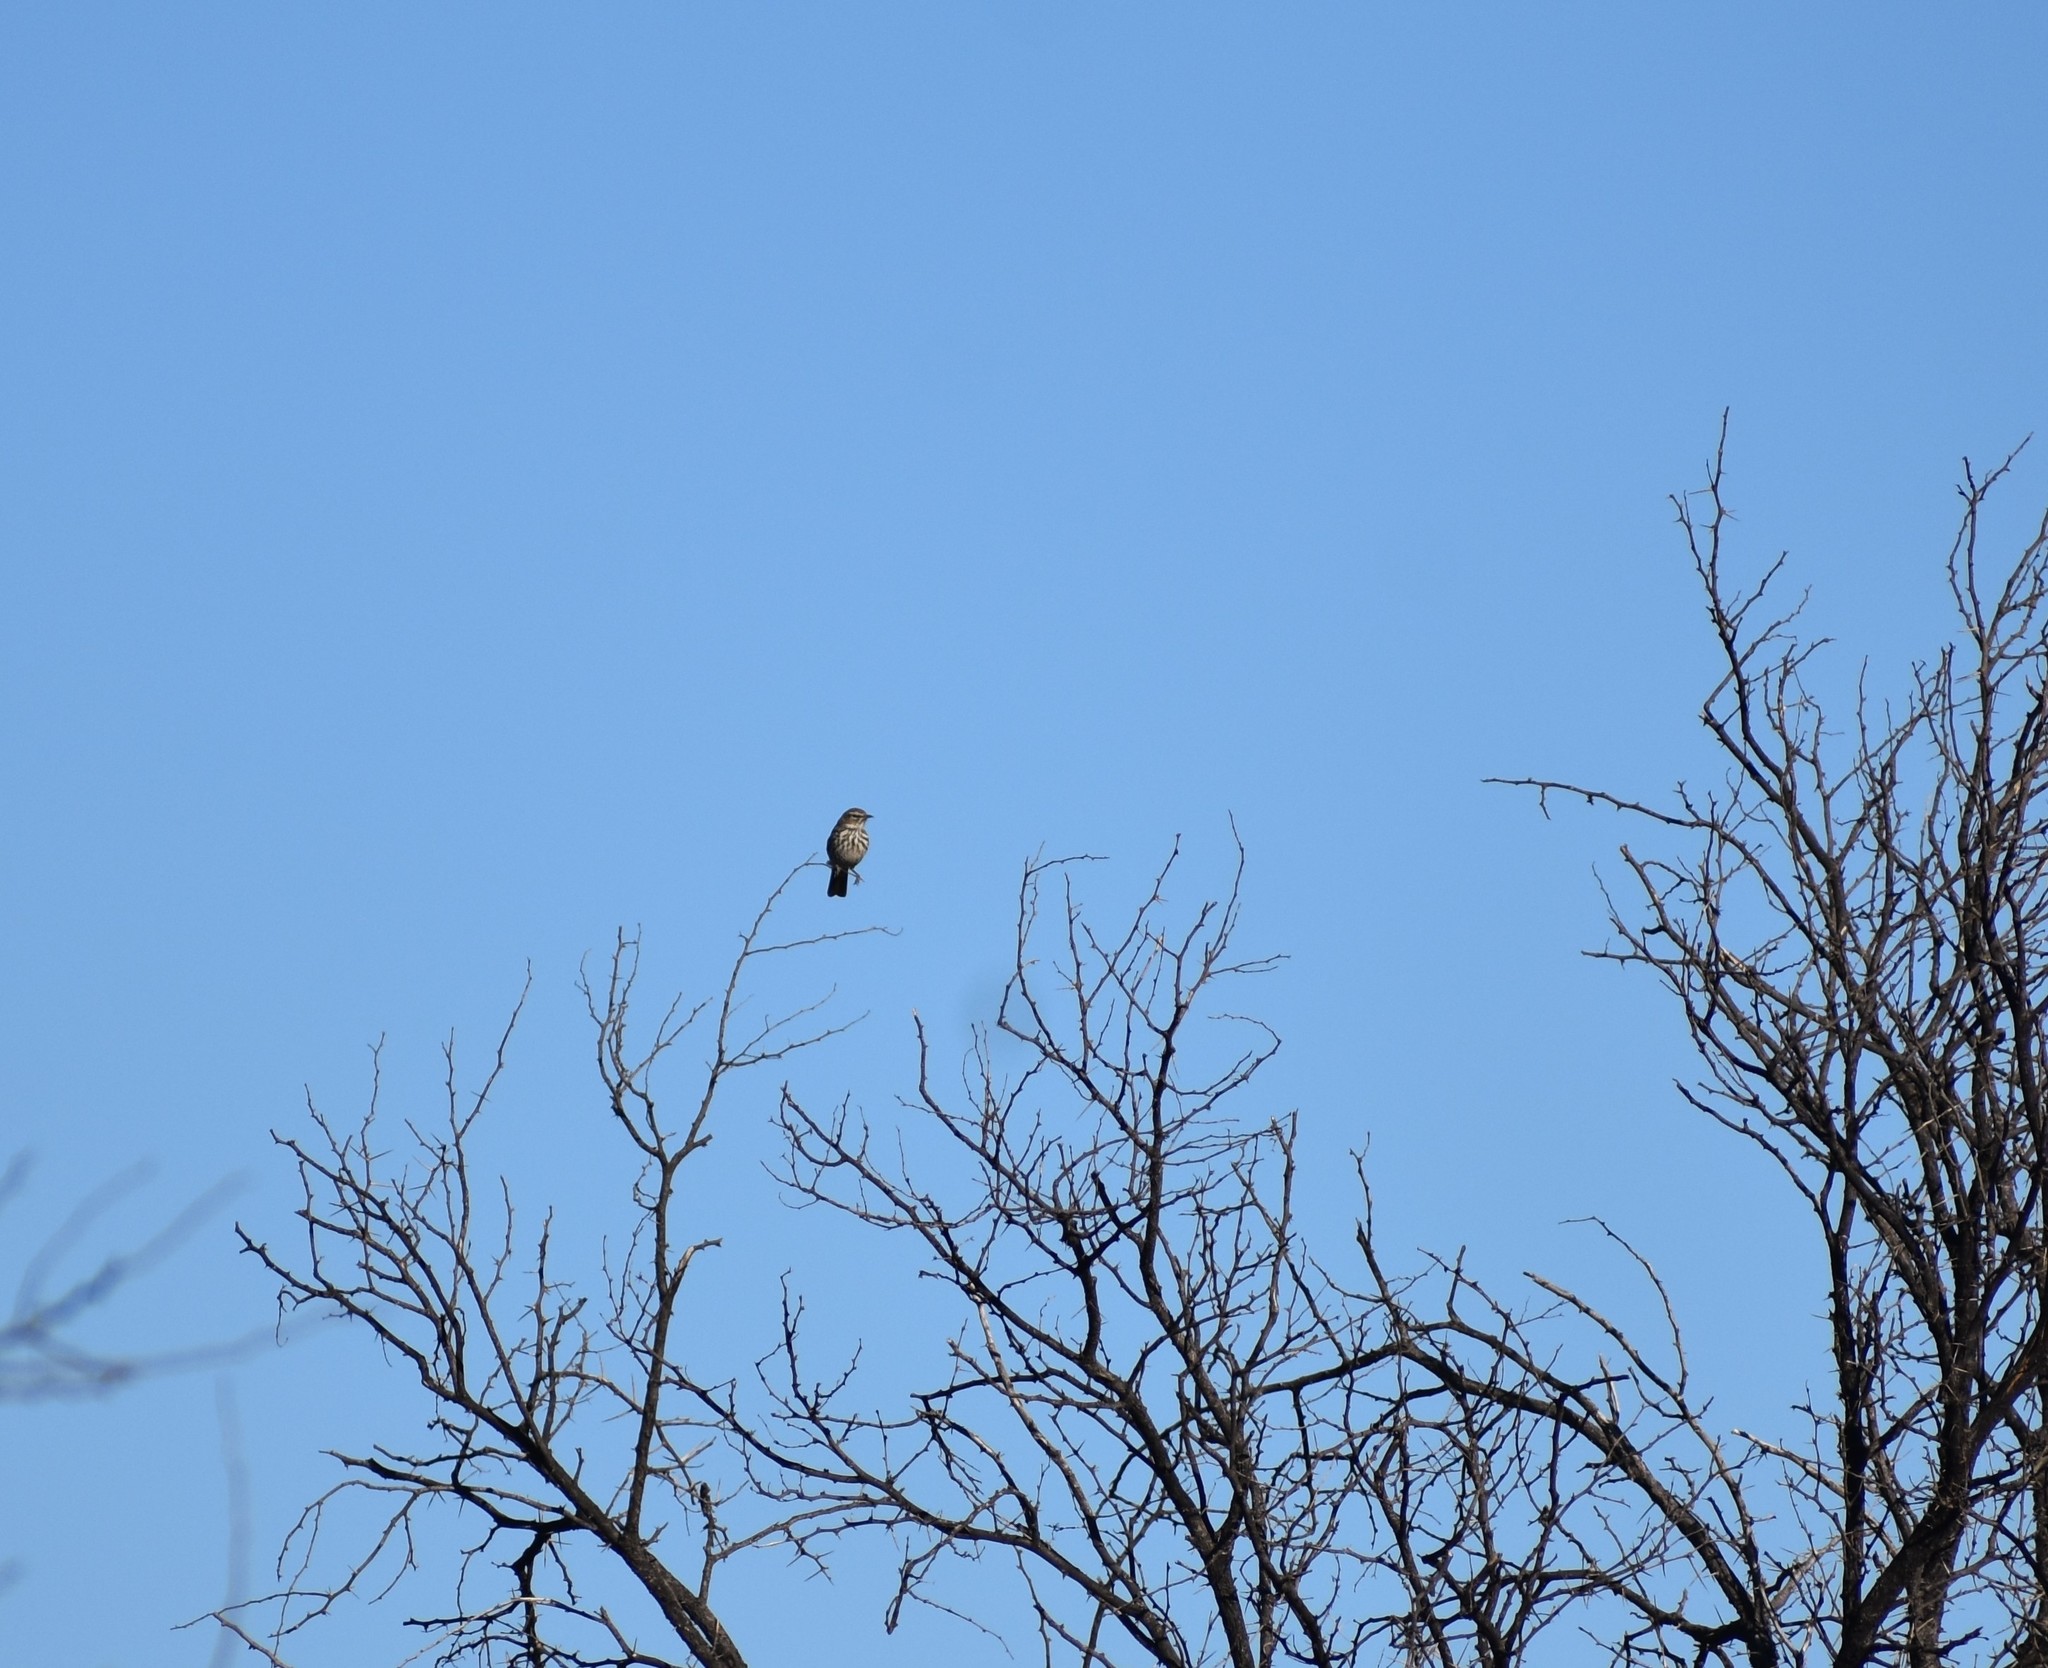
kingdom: Animalia
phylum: Chordata
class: Aves
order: Passeriformes
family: Alaudidae
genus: Calendulauda
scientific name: Calendulauda albescens
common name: Karoo lark
